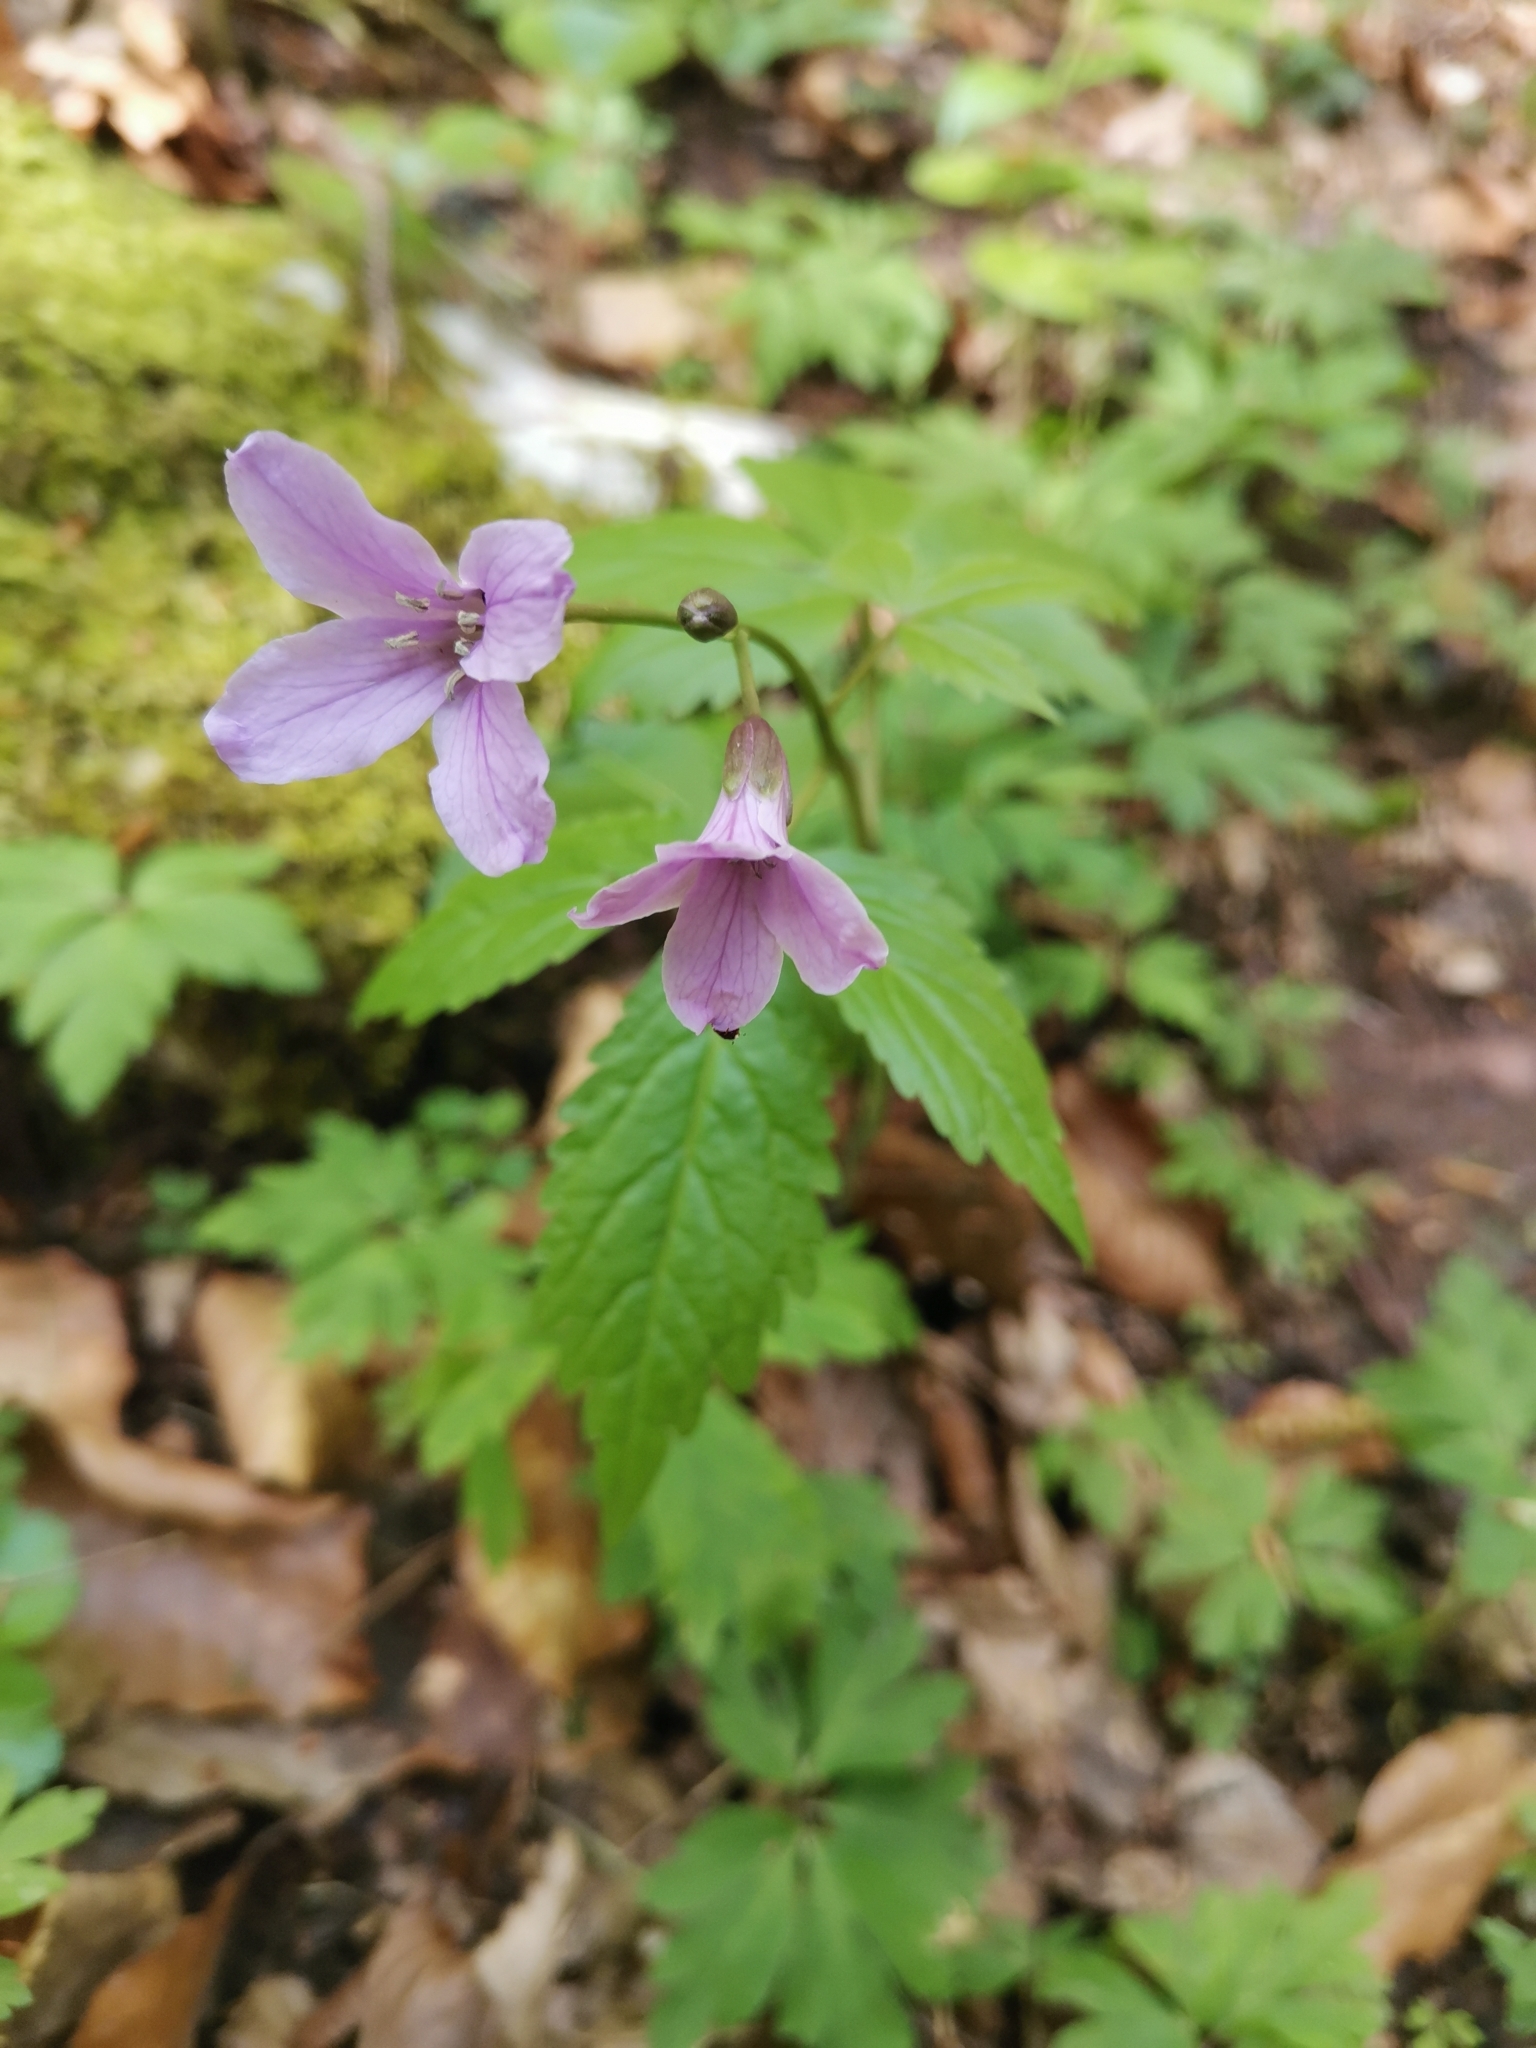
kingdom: Plantae
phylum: Tracheophyta
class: Magnoliopsida
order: Brassicales
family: Brassicaceae
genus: Cardamine
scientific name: Cardamine pentaphyllos
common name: Five-leaflet bitter-cress
